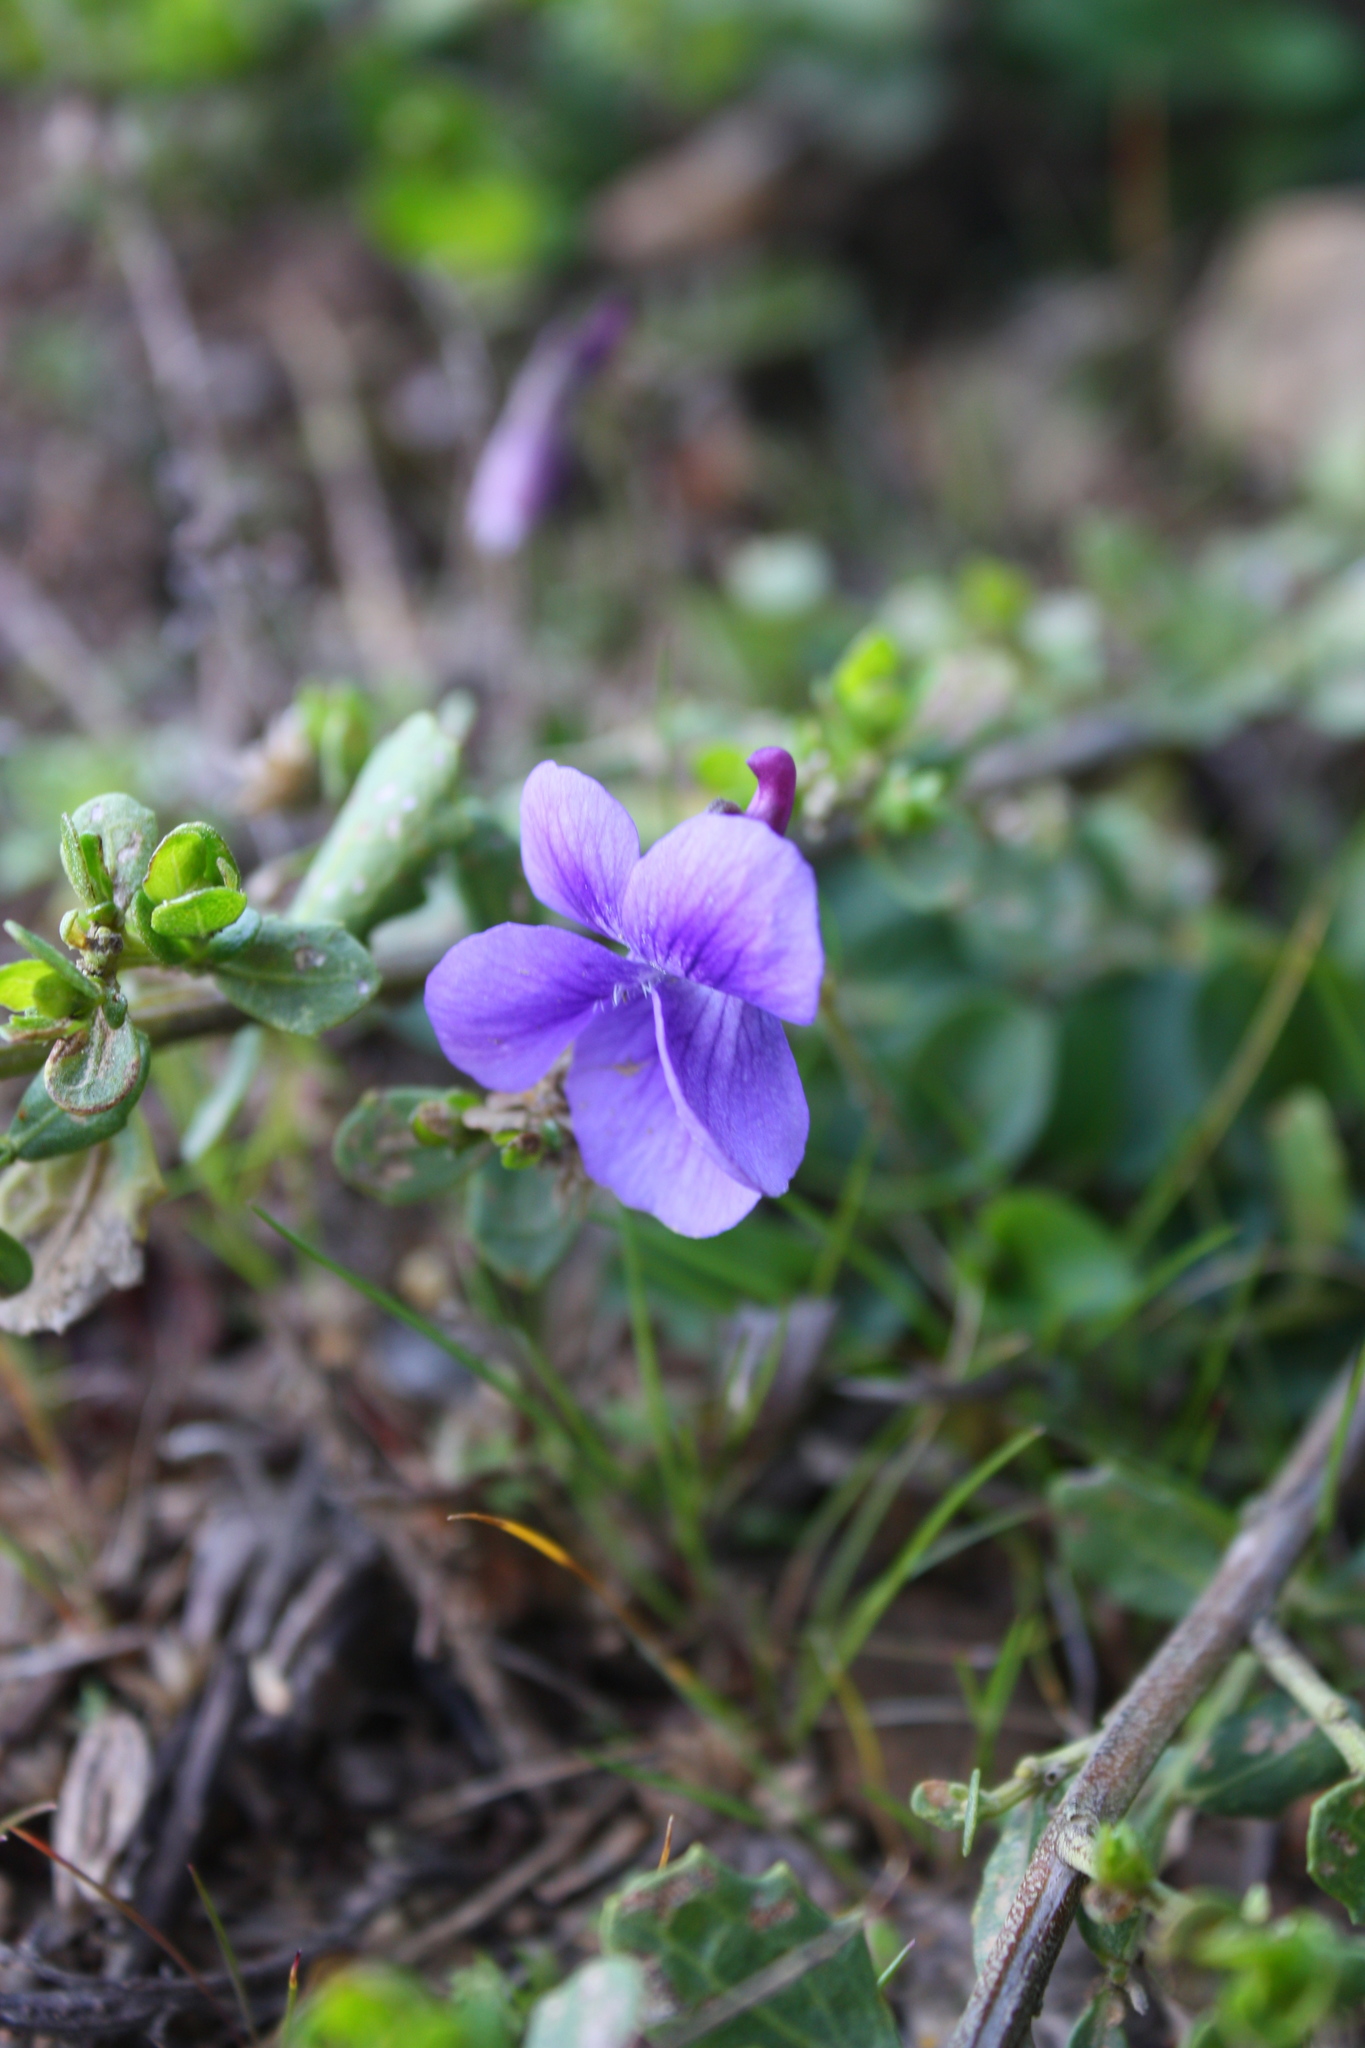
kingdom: Plantae
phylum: Tracheophyta
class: Magnoliopsida
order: Malpighiales
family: Violaceae
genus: Viola
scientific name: Viola adunca
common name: Sand violet
